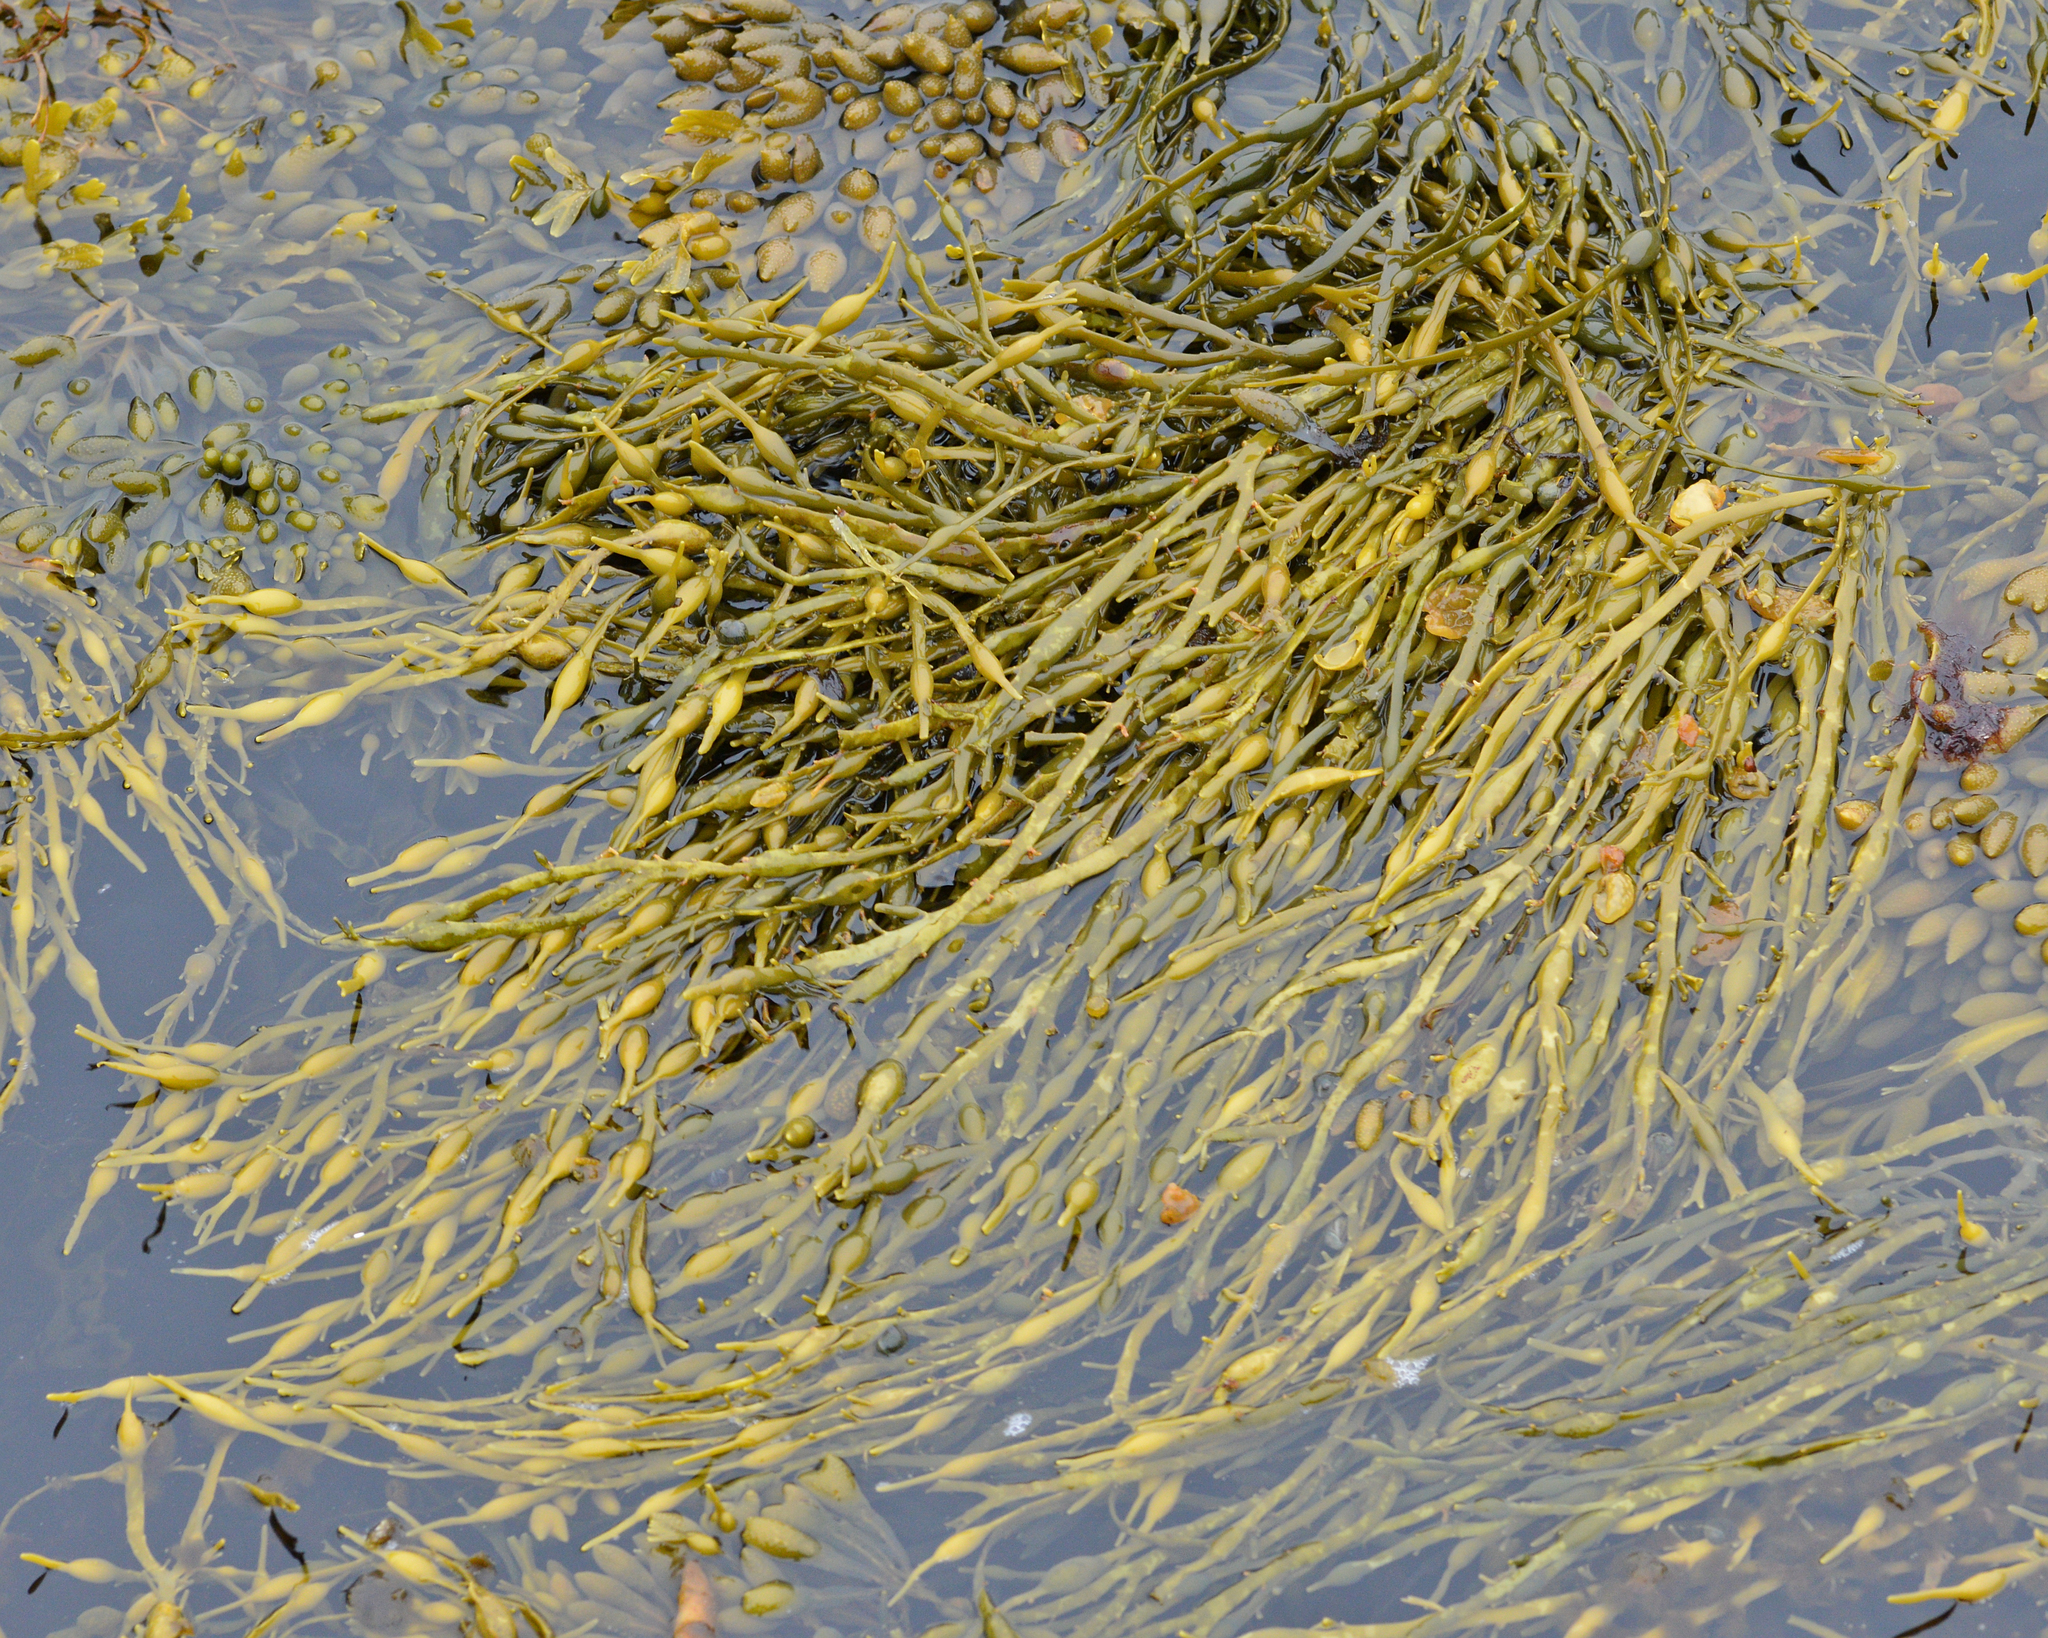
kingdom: Chromista
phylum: Ochrophyta
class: Phaeophyceae
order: Fucales
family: Fucaceae
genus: Ascophyllum
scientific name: Ascophyllum nodosum
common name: Knotted wrack
